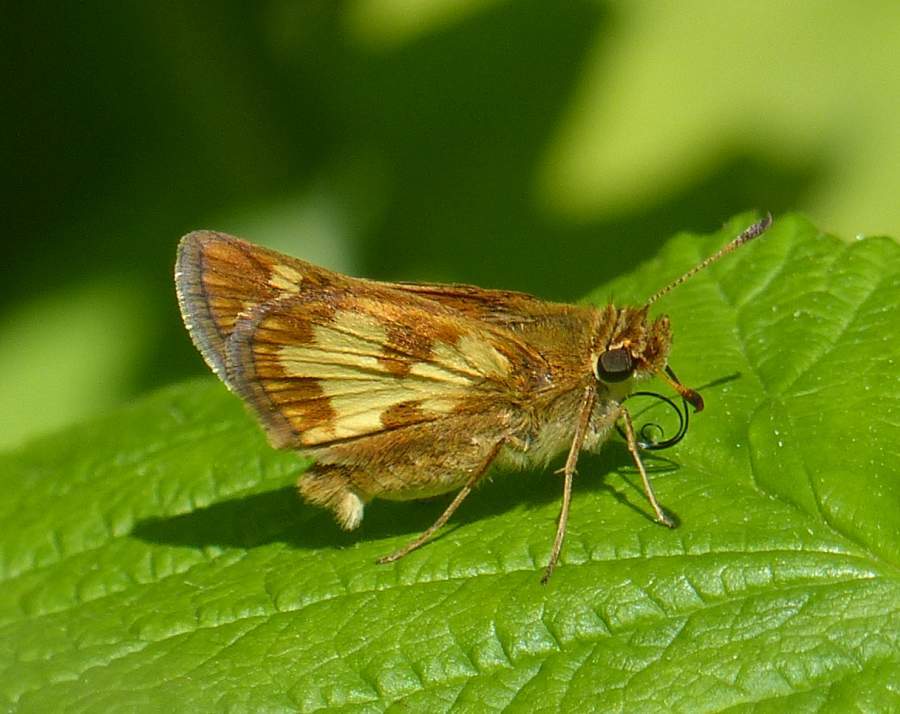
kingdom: Animalia
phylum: Arthropoda
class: Insecta
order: Lepidoptera
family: Hesperiidae
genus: Polites
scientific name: Polites coras
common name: Peck's skipper
